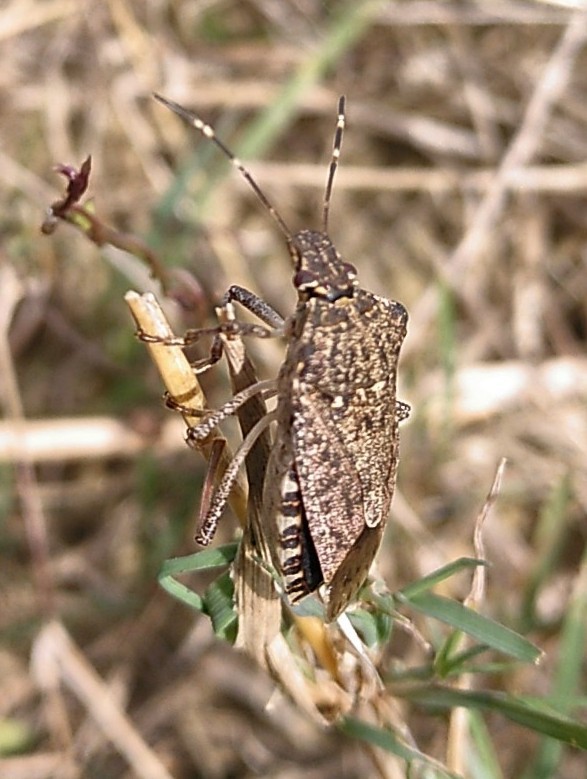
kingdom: Animalia
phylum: Arthropoda
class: Insecta
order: Hemiptera
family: Pentatomidae
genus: Halyomorpha
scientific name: Halyomorpha halys
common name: Brown marmorated stink bug
